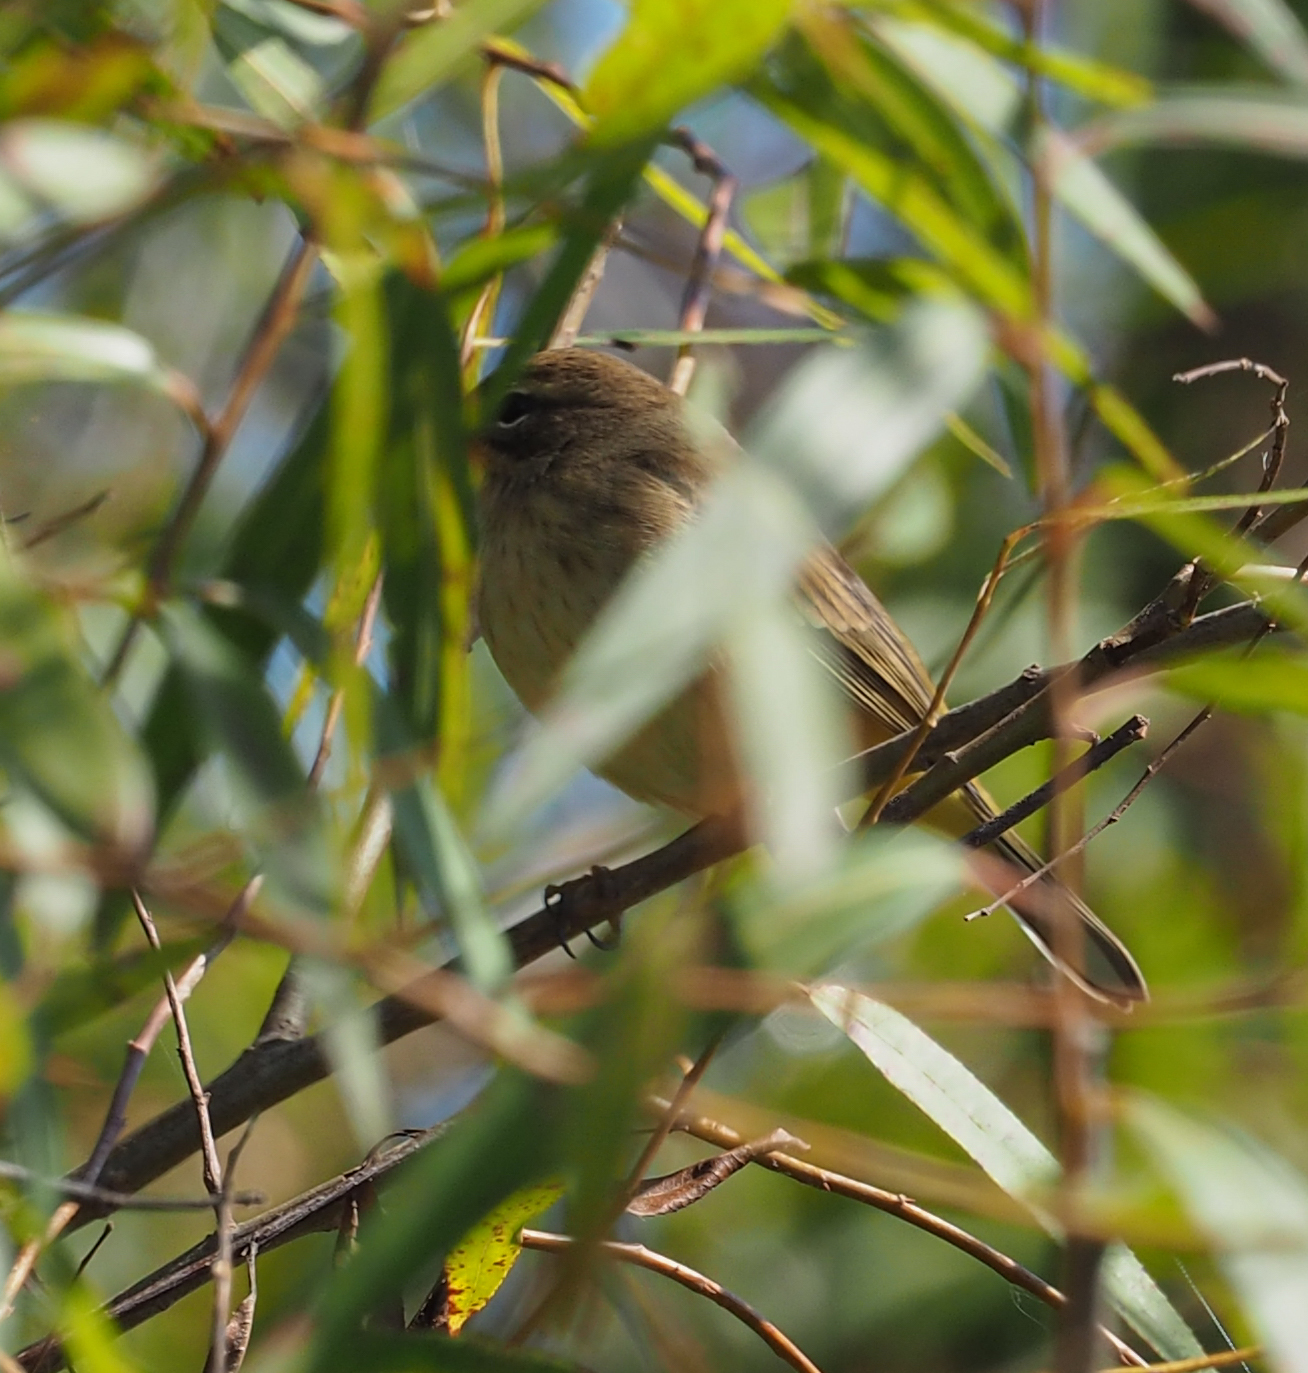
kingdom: Animalia
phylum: Chordata
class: Aves
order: Passeriformes
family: Parulidae
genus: Setophaga
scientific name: Setophaga palmarum
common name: Palm warbler
